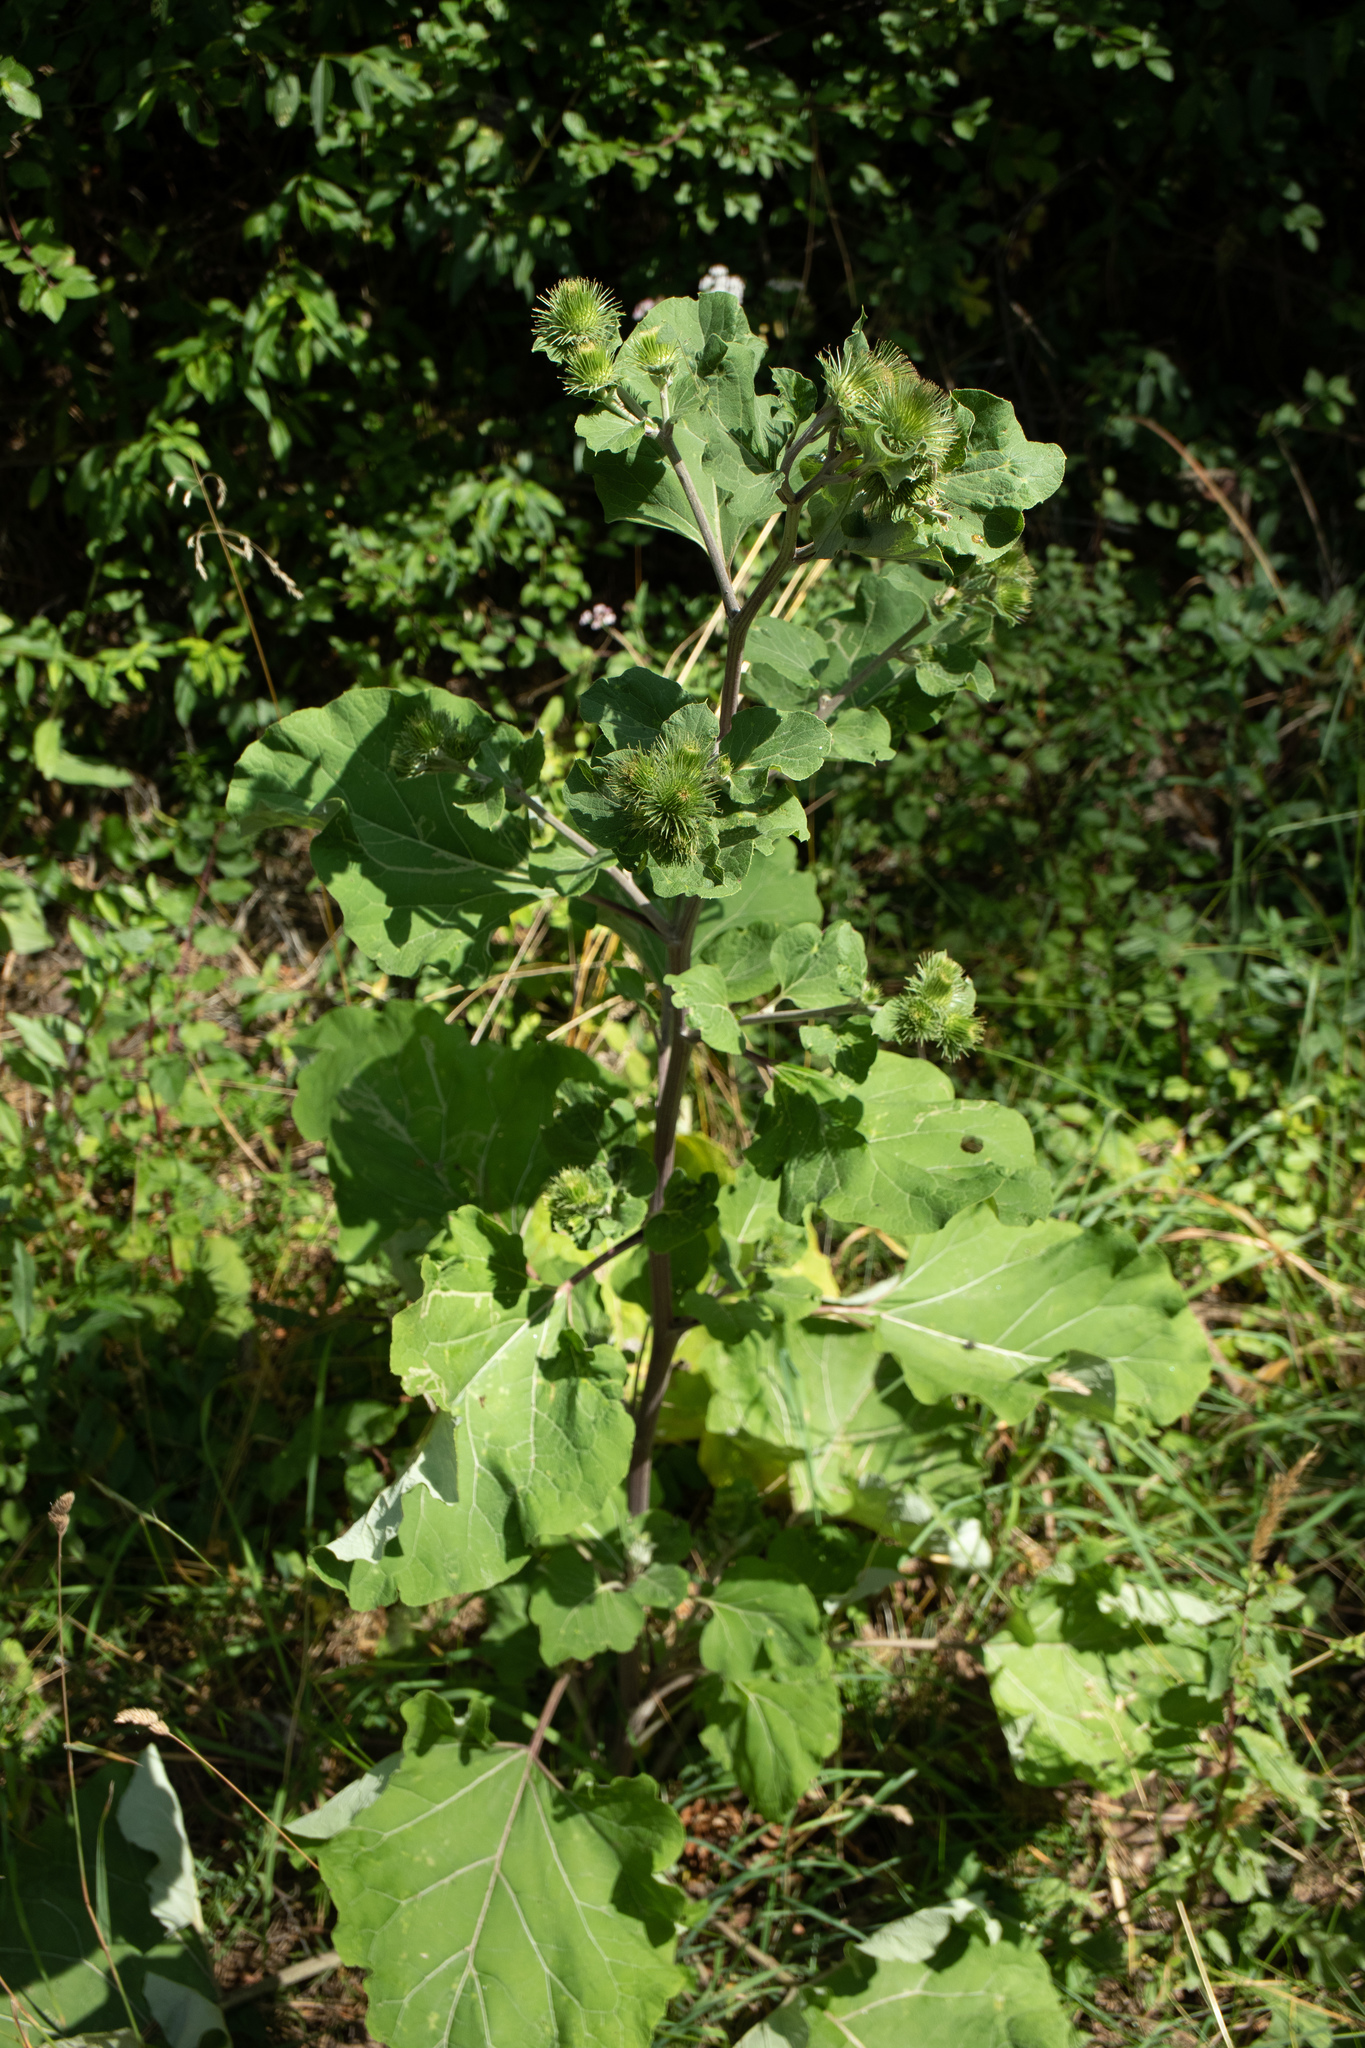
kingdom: Plantae
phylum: Tracheophyta
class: Magnoliopsida
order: Asterales
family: Asteraceae
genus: Arctium
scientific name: Arctium lappa
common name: Greater burdock
